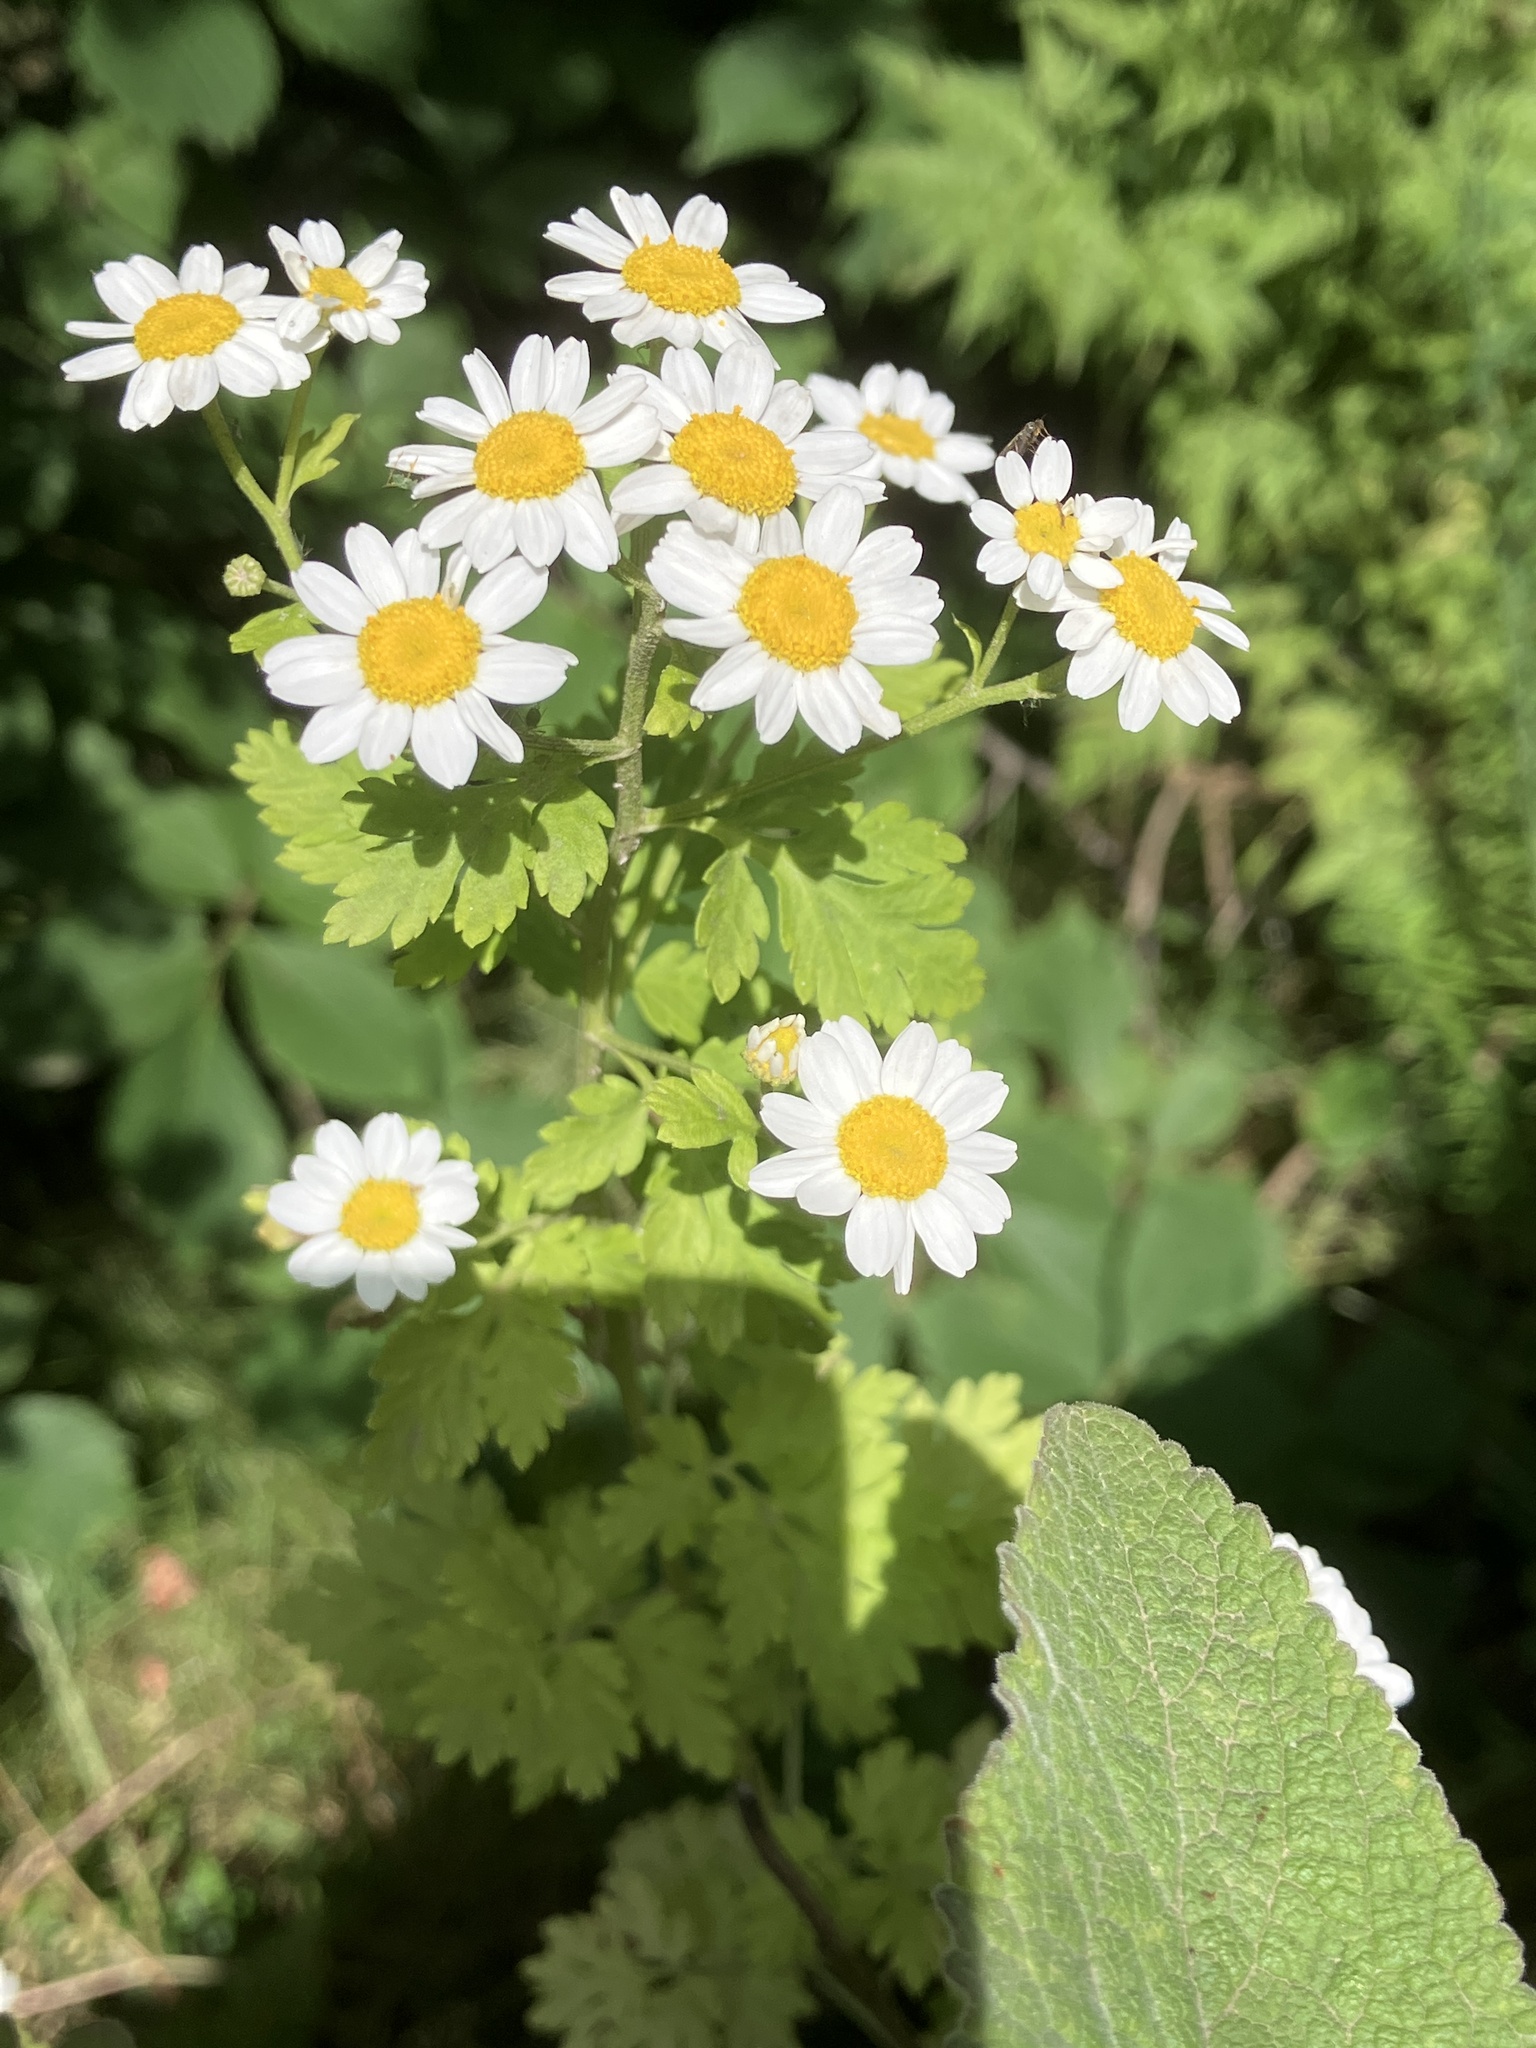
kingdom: Plantae
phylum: Tracheophyta
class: Magnoliopsida
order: Asterales
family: Asteraceae
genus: Tanacetum
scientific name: Tanacetum parthenium
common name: Feverfew
